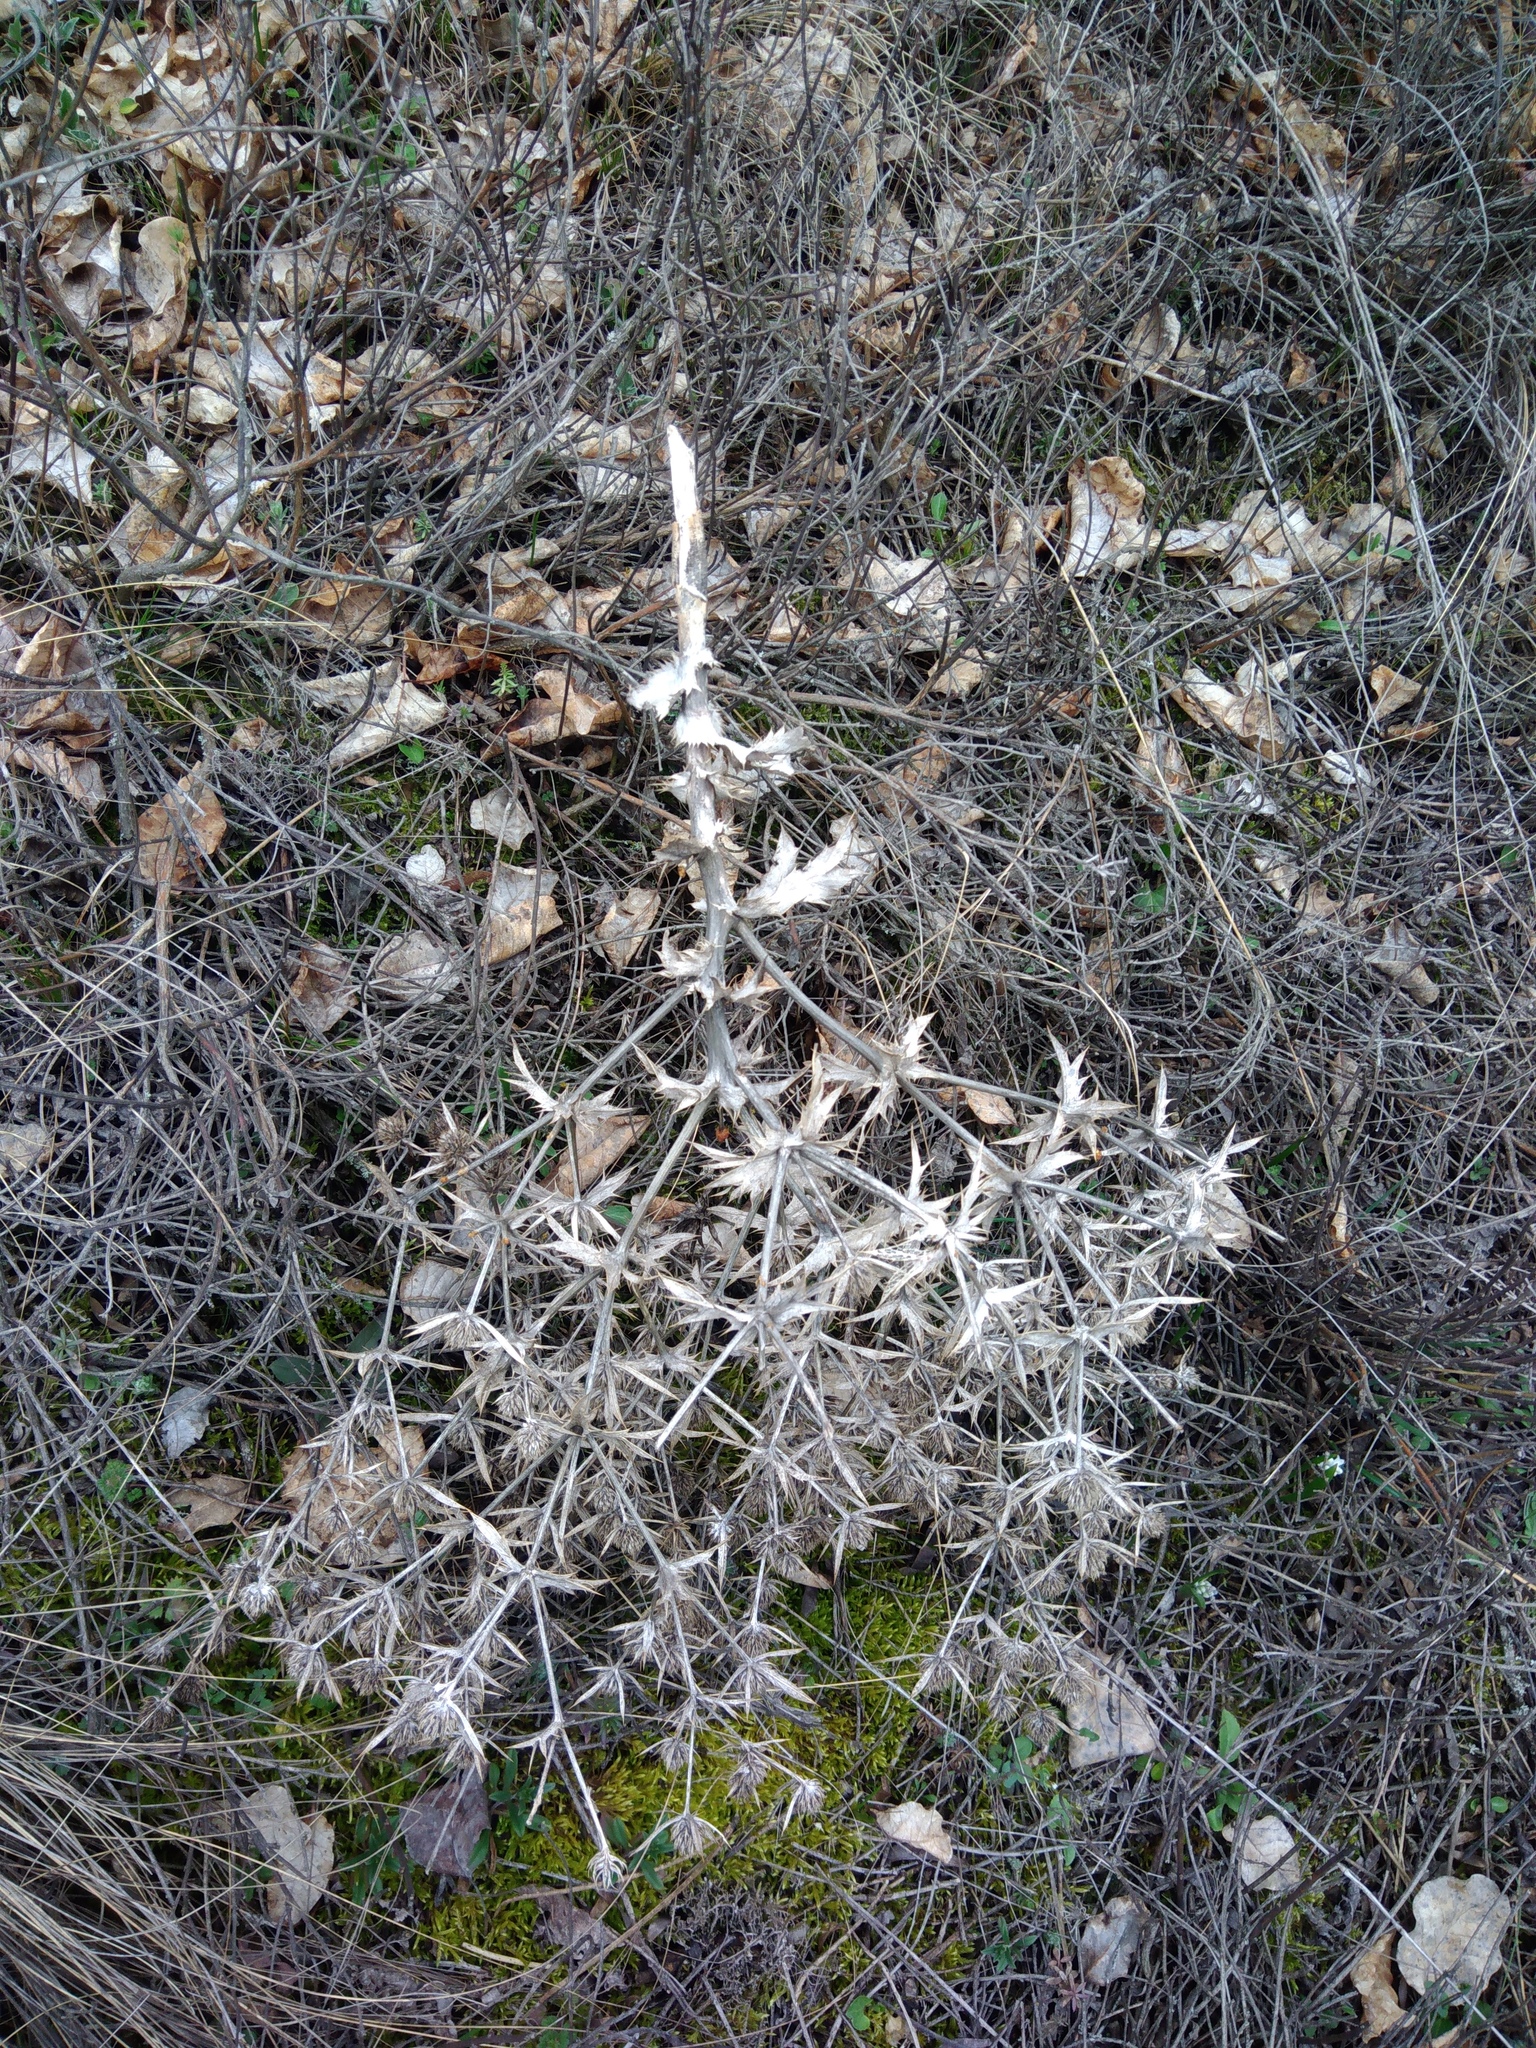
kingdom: Plantae
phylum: Tracheophyta
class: Magnoliopsida
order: Apiales
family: Apiaceae
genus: Eryngium
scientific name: Eryngium campestre
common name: Field eryngo
